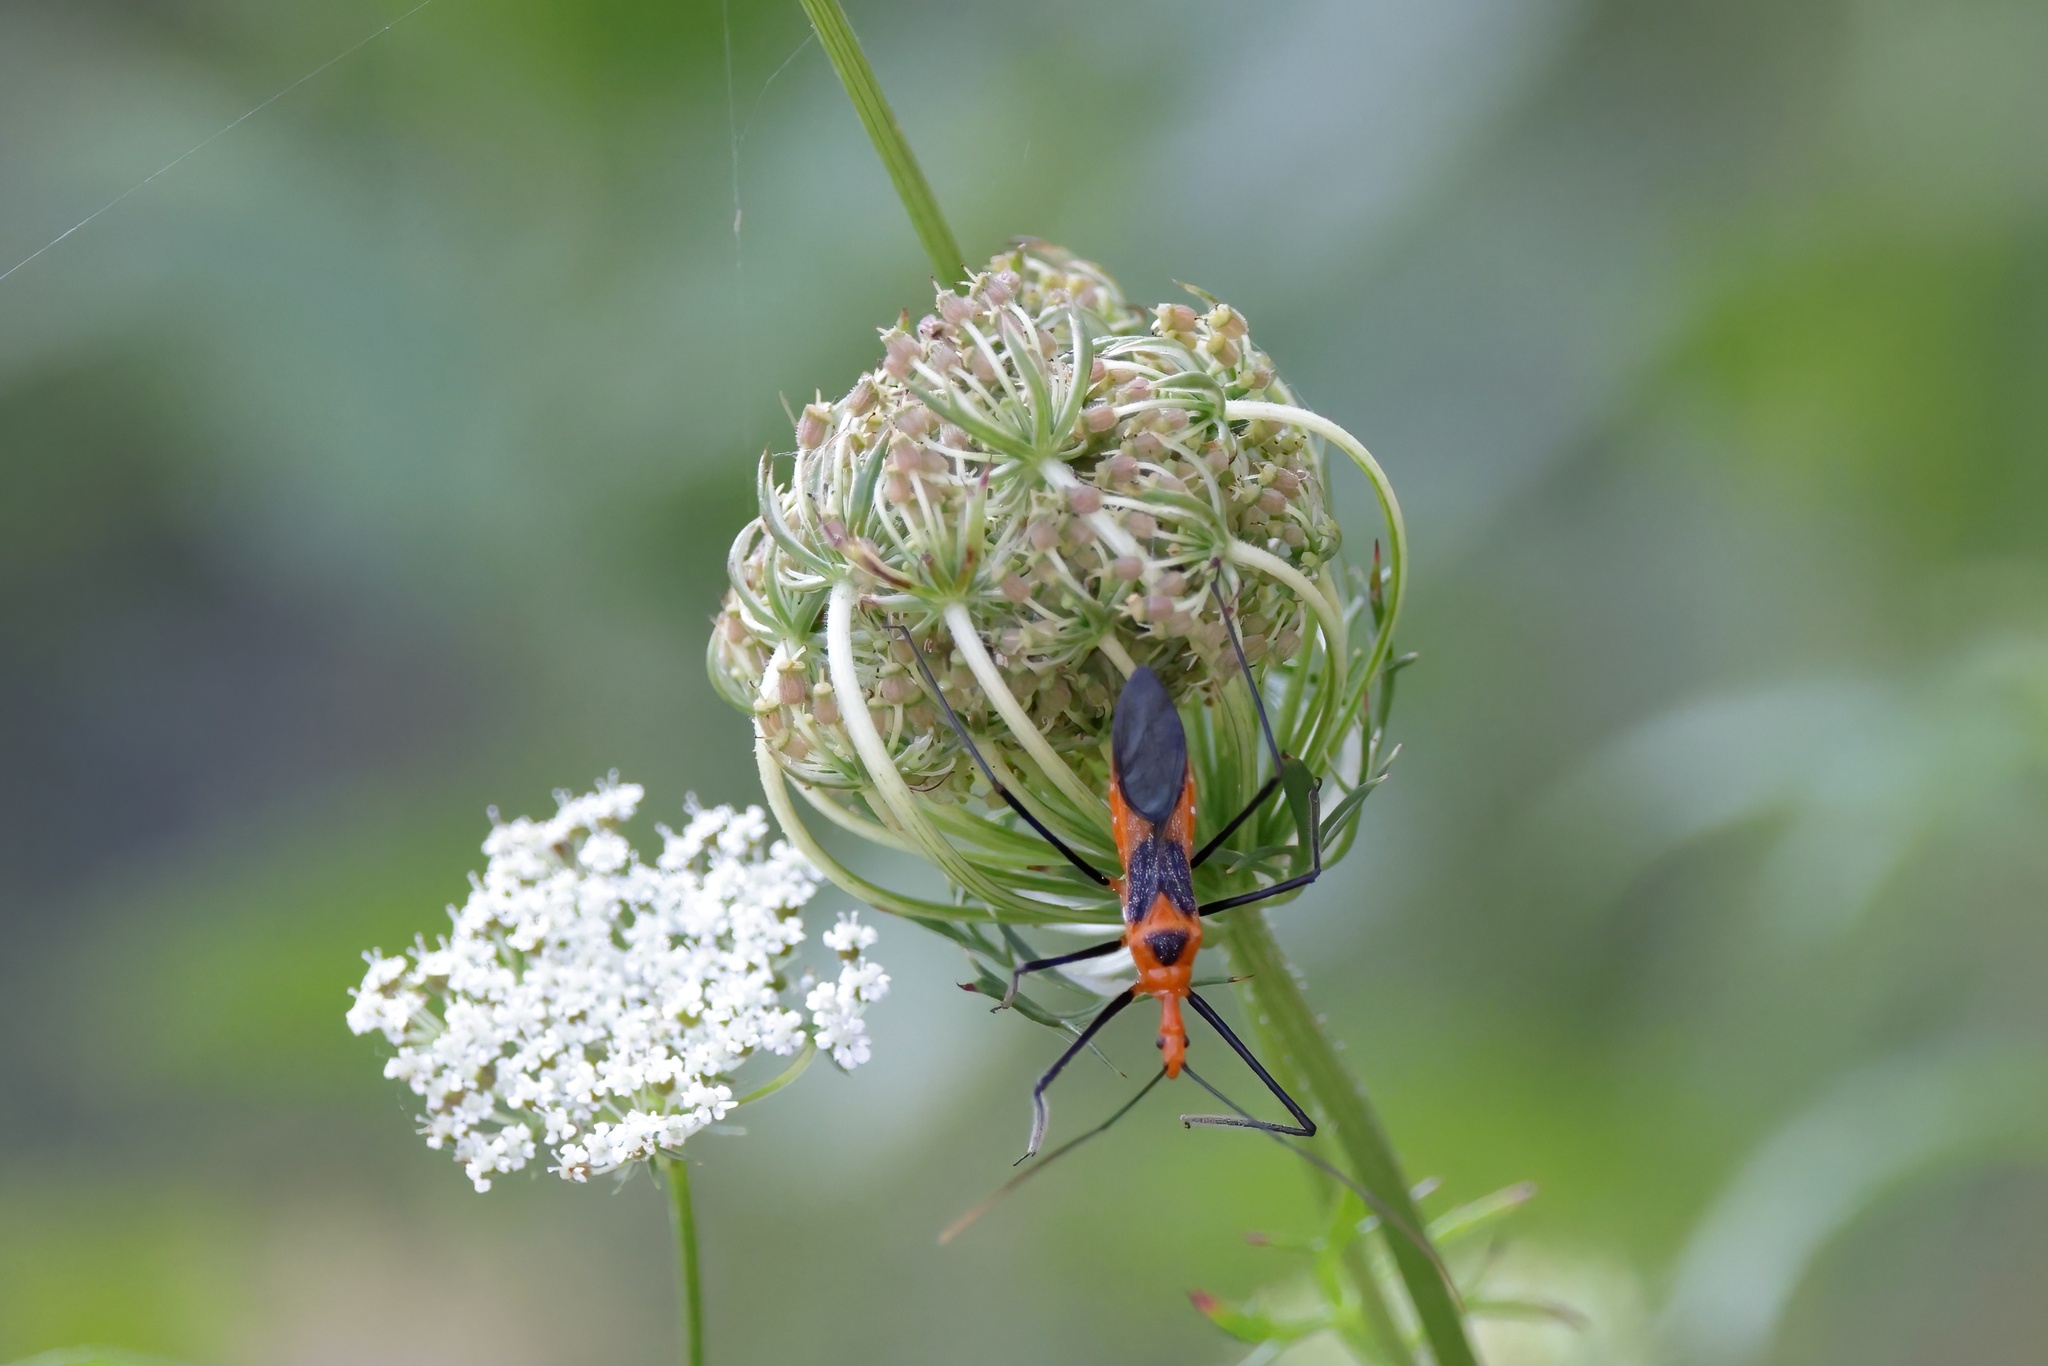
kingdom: Animalia
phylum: Arthropoda
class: Insecta
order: Hemiptera
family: Reduviidae
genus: Zelus
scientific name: Zelus longipes
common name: Milkweed assassin bug
